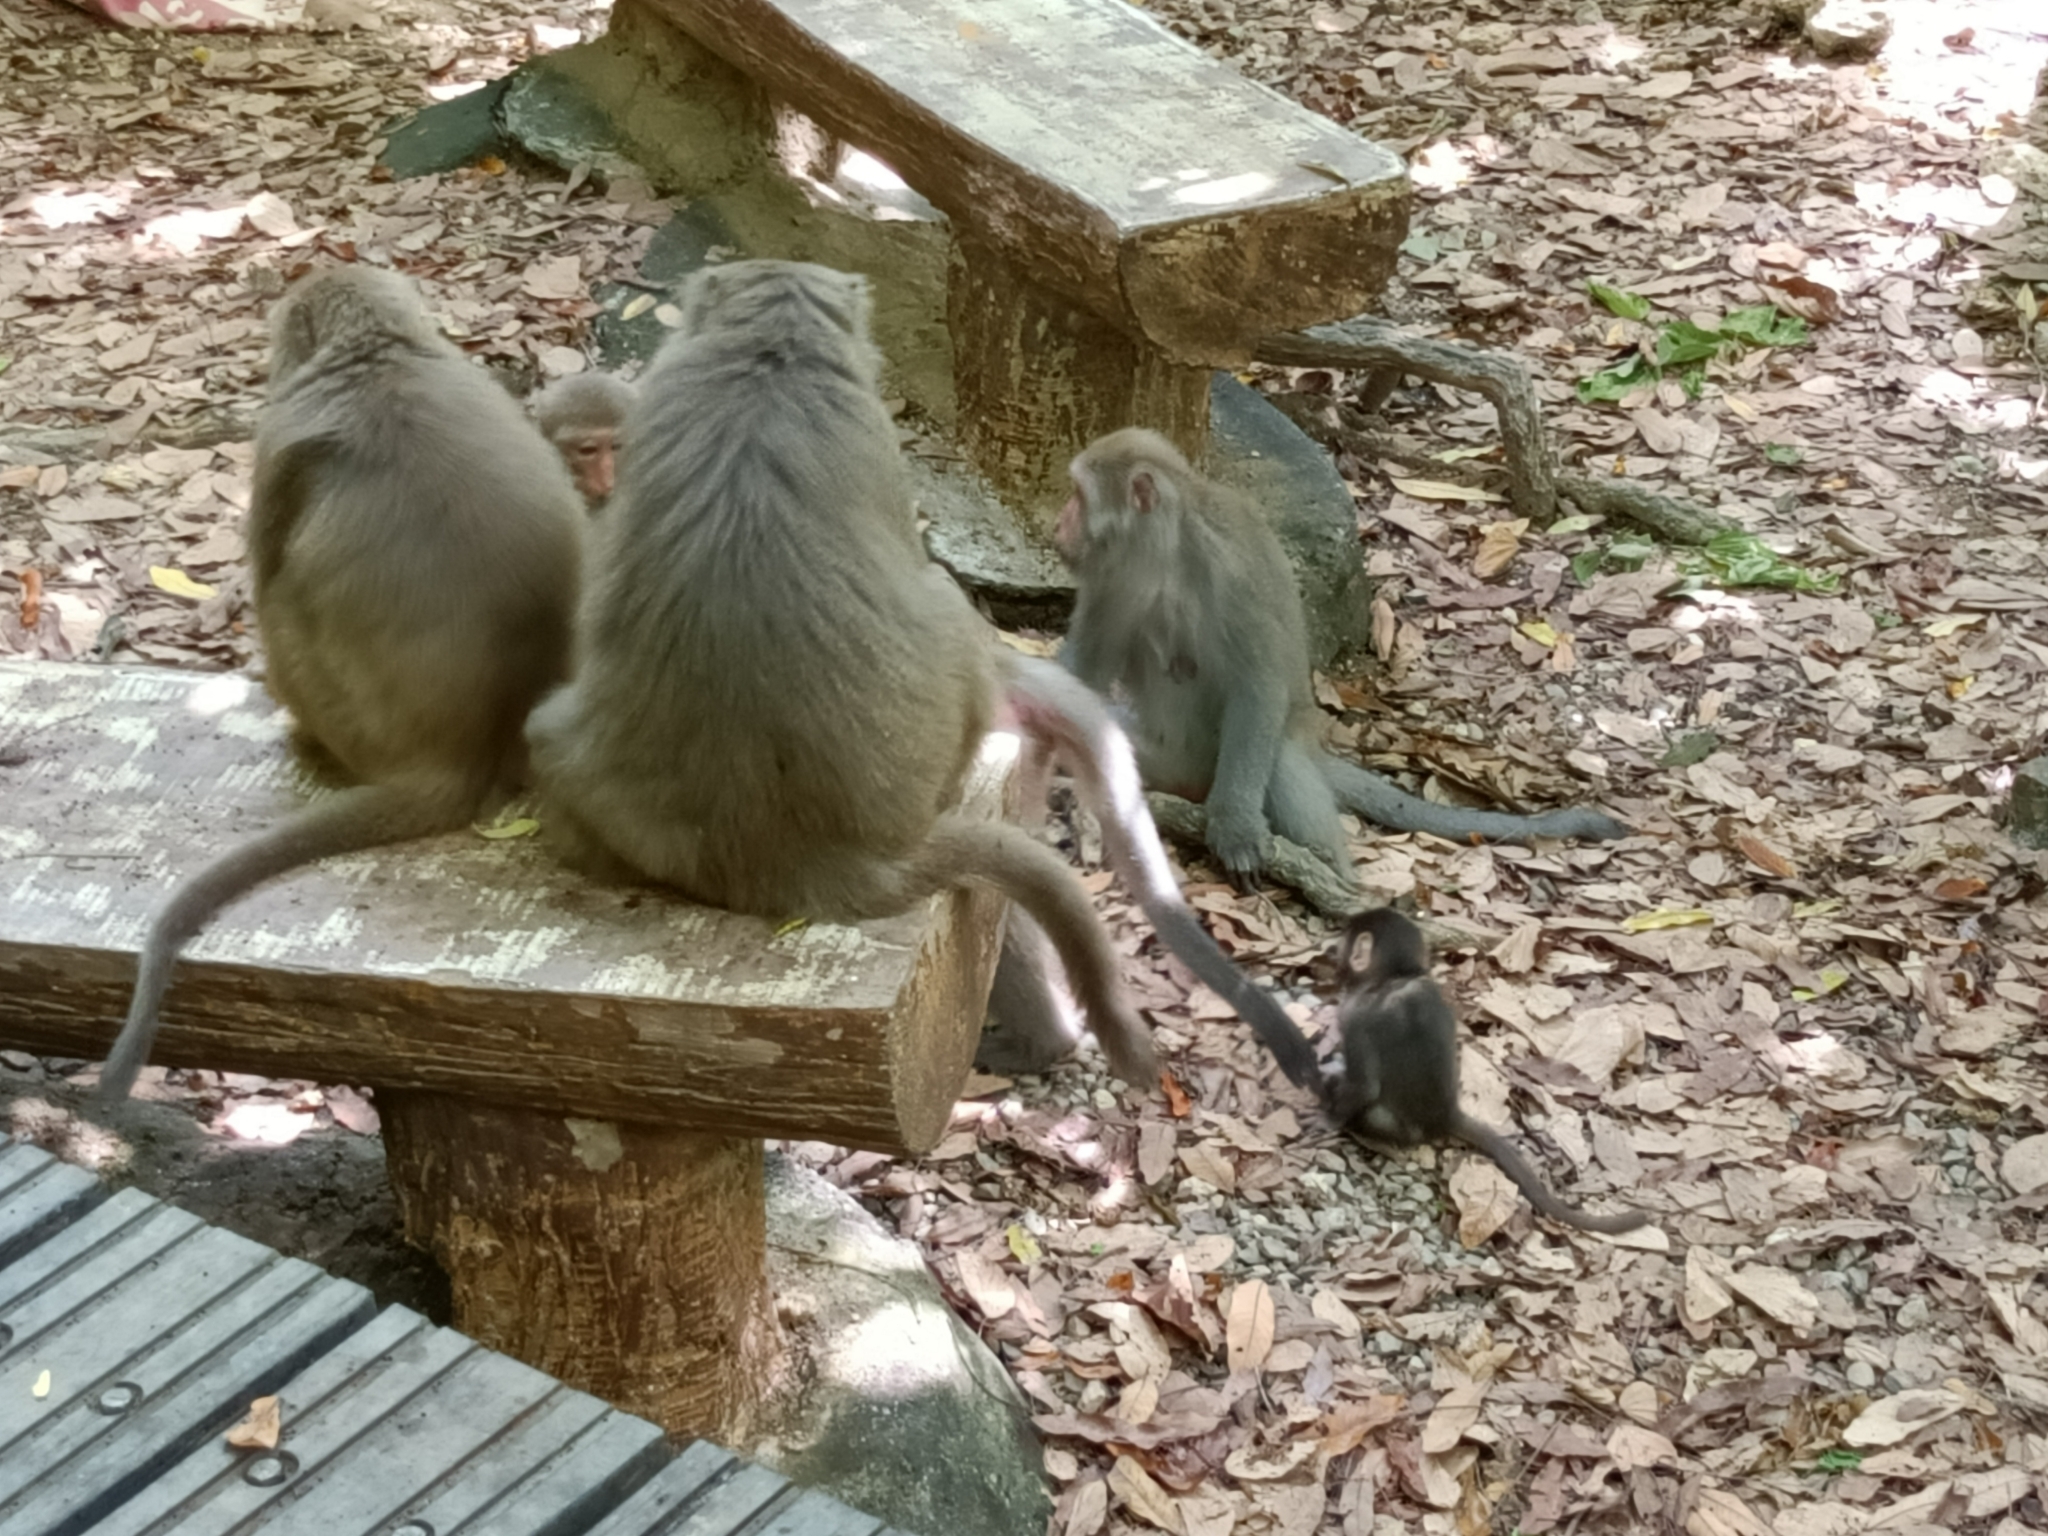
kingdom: Animalia
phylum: Chordata
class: Mammalia
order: Primates
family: Cercopithecidae
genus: Macaca
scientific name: Macaca cyclopis
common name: Formosan rock macaque
